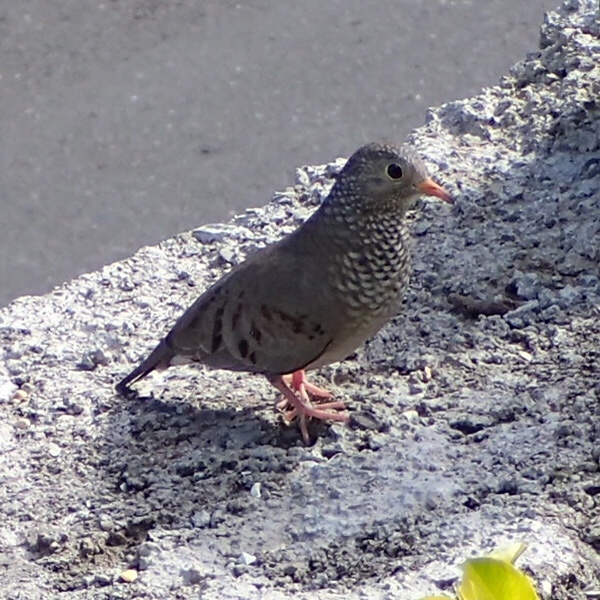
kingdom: Animalia
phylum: Chordata
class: Aves
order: Columbiformes
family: Columbidae
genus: Columbina
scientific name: Columbina passerina
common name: Common ground-dove
